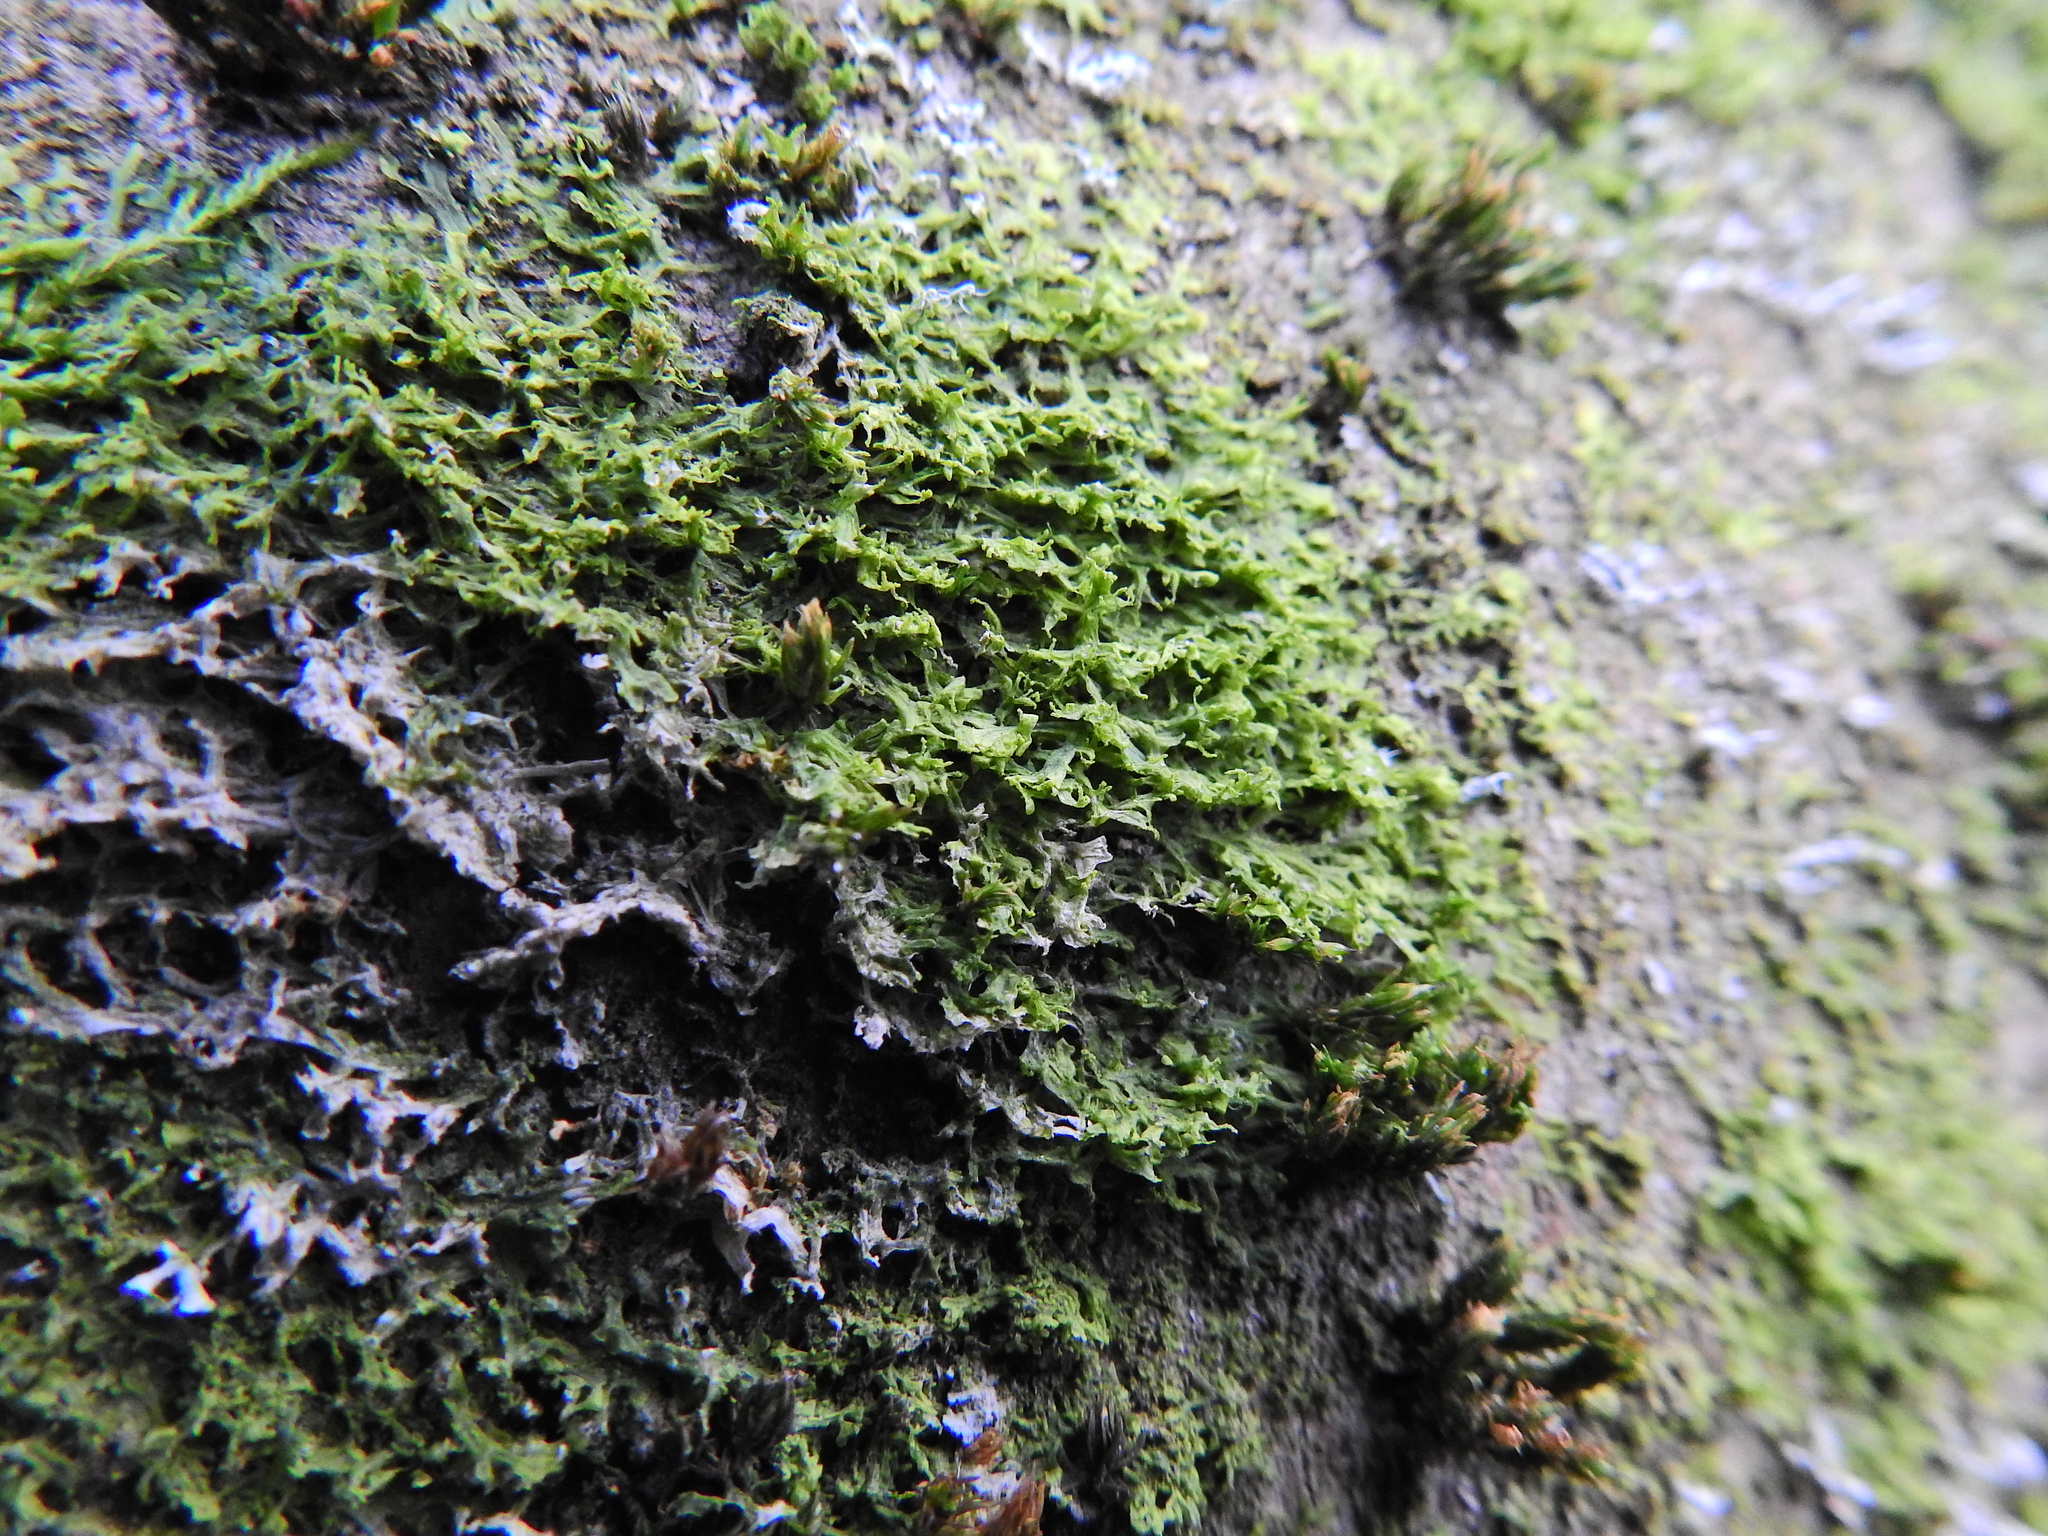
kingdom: Plantae
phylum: Marchantiophyta
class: Jungermanniopsida
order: Metzgeriales
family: Metzgeriaceae
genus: Metzgeria
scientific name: Metzgeria violacea
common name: Blueish veilwort
